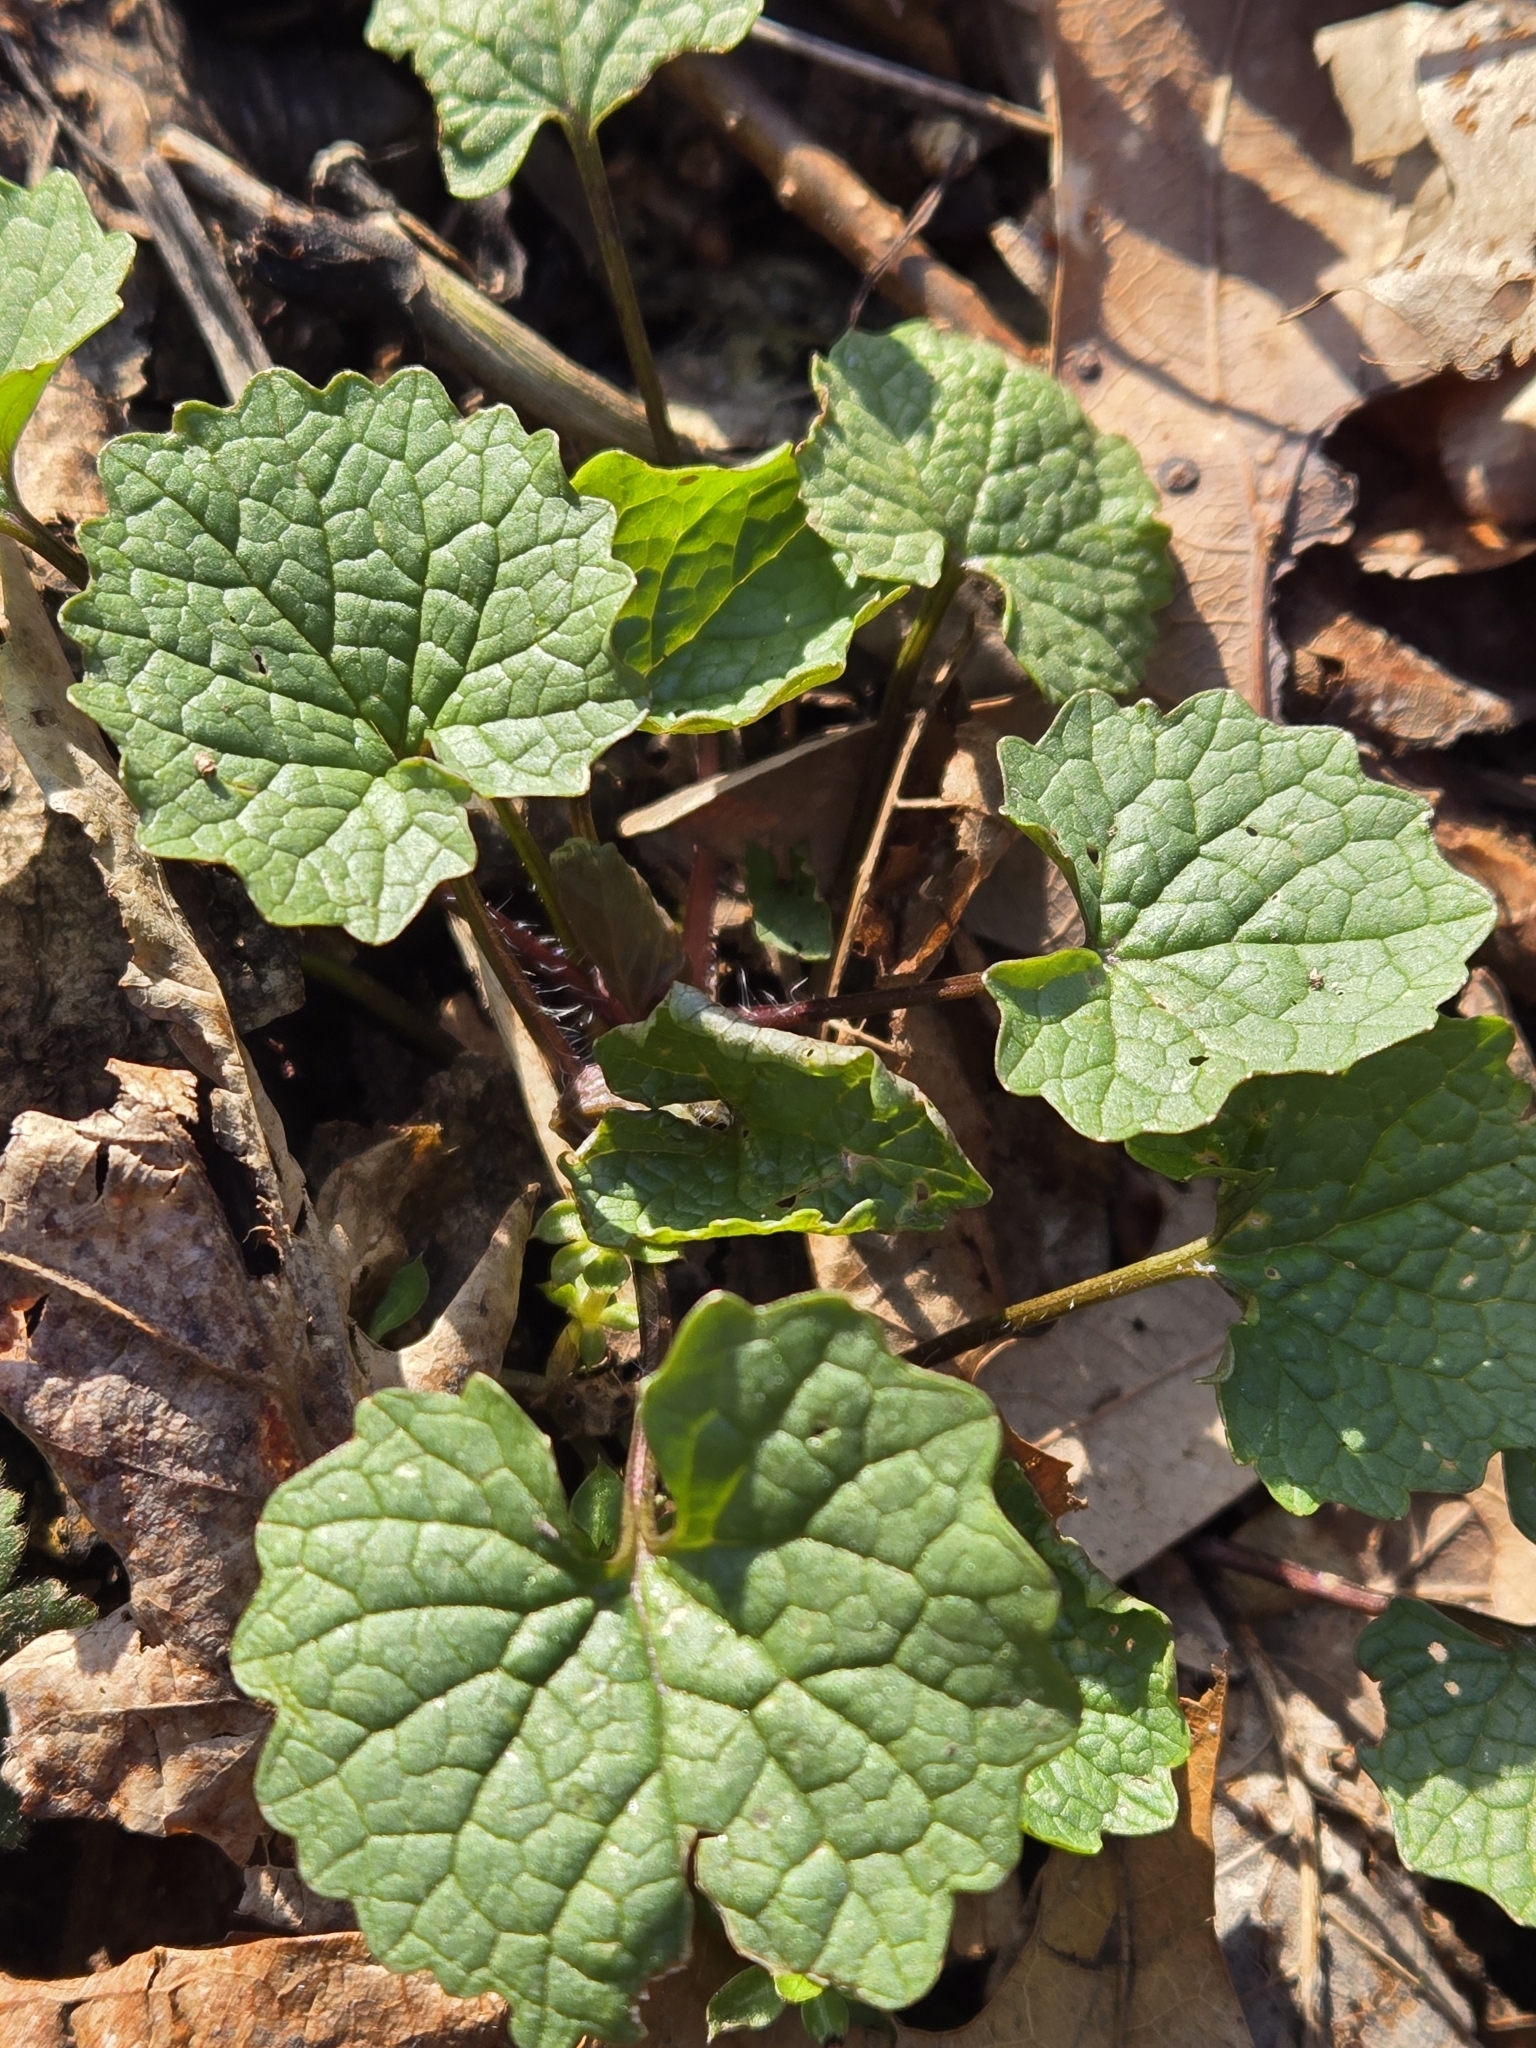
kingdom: Plantae
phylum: Tracheophyta
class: Magnoliopsida
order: Brassicales
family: Brassicaceae
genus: Alliaria
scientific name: Alliaria petiolata
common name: Garlic mustard
